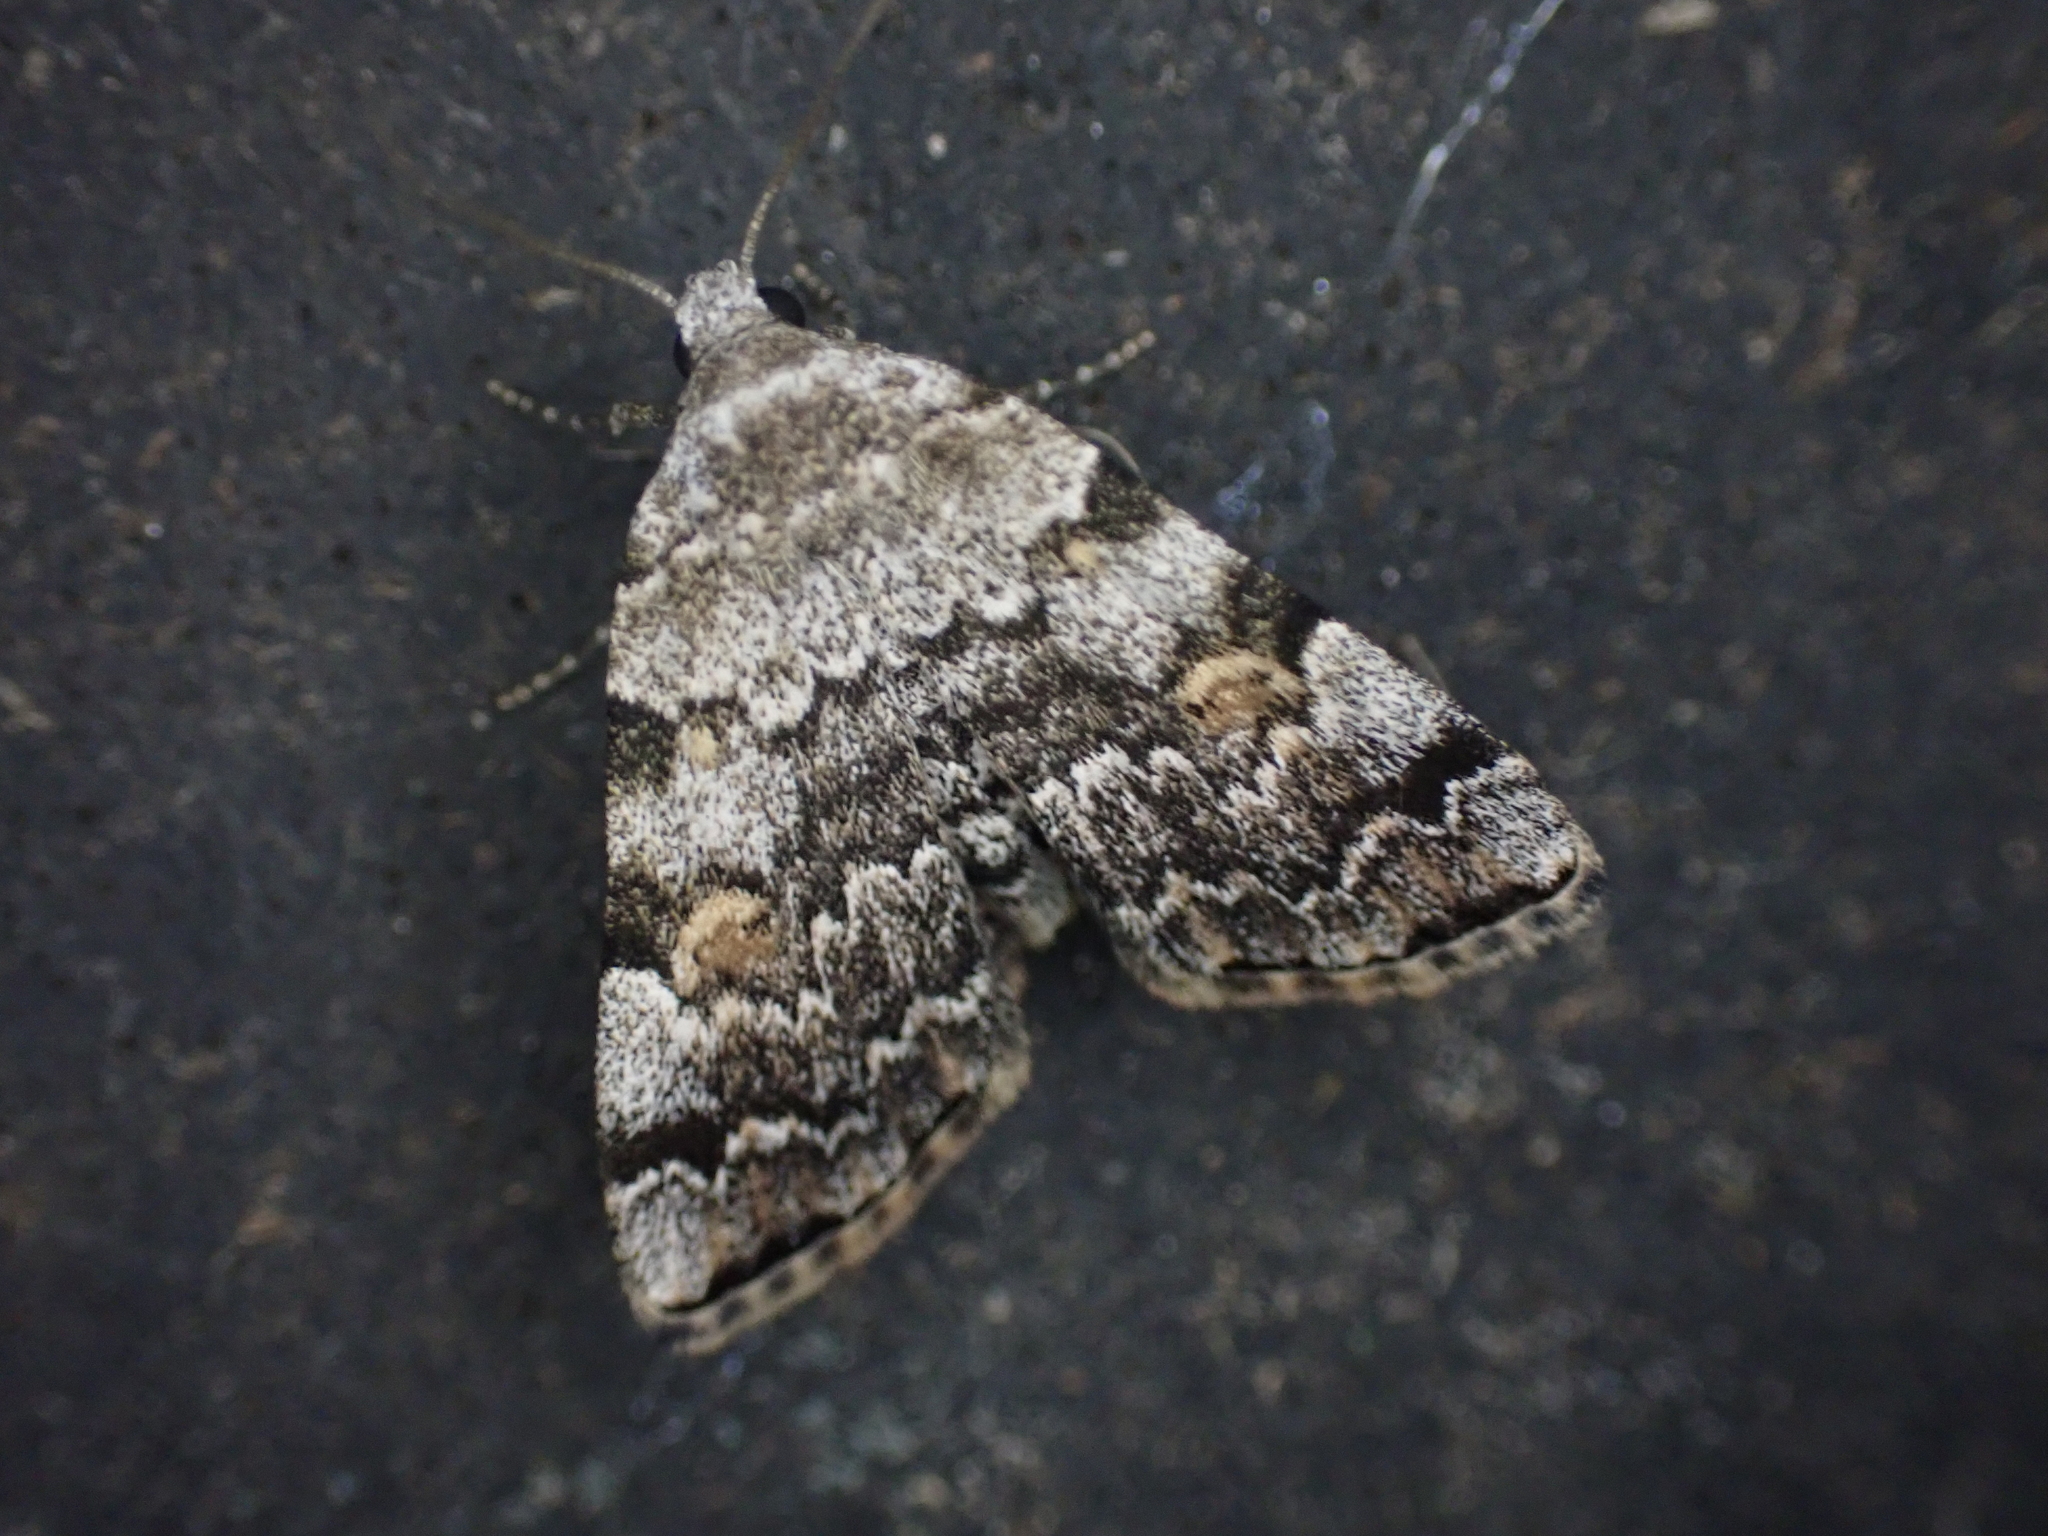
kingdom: Animalia
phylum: Arthropoda
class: Insecta
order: Lepidoptera
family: Erebidae
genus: Idia
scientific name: Idia americalis
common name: American idia moth
